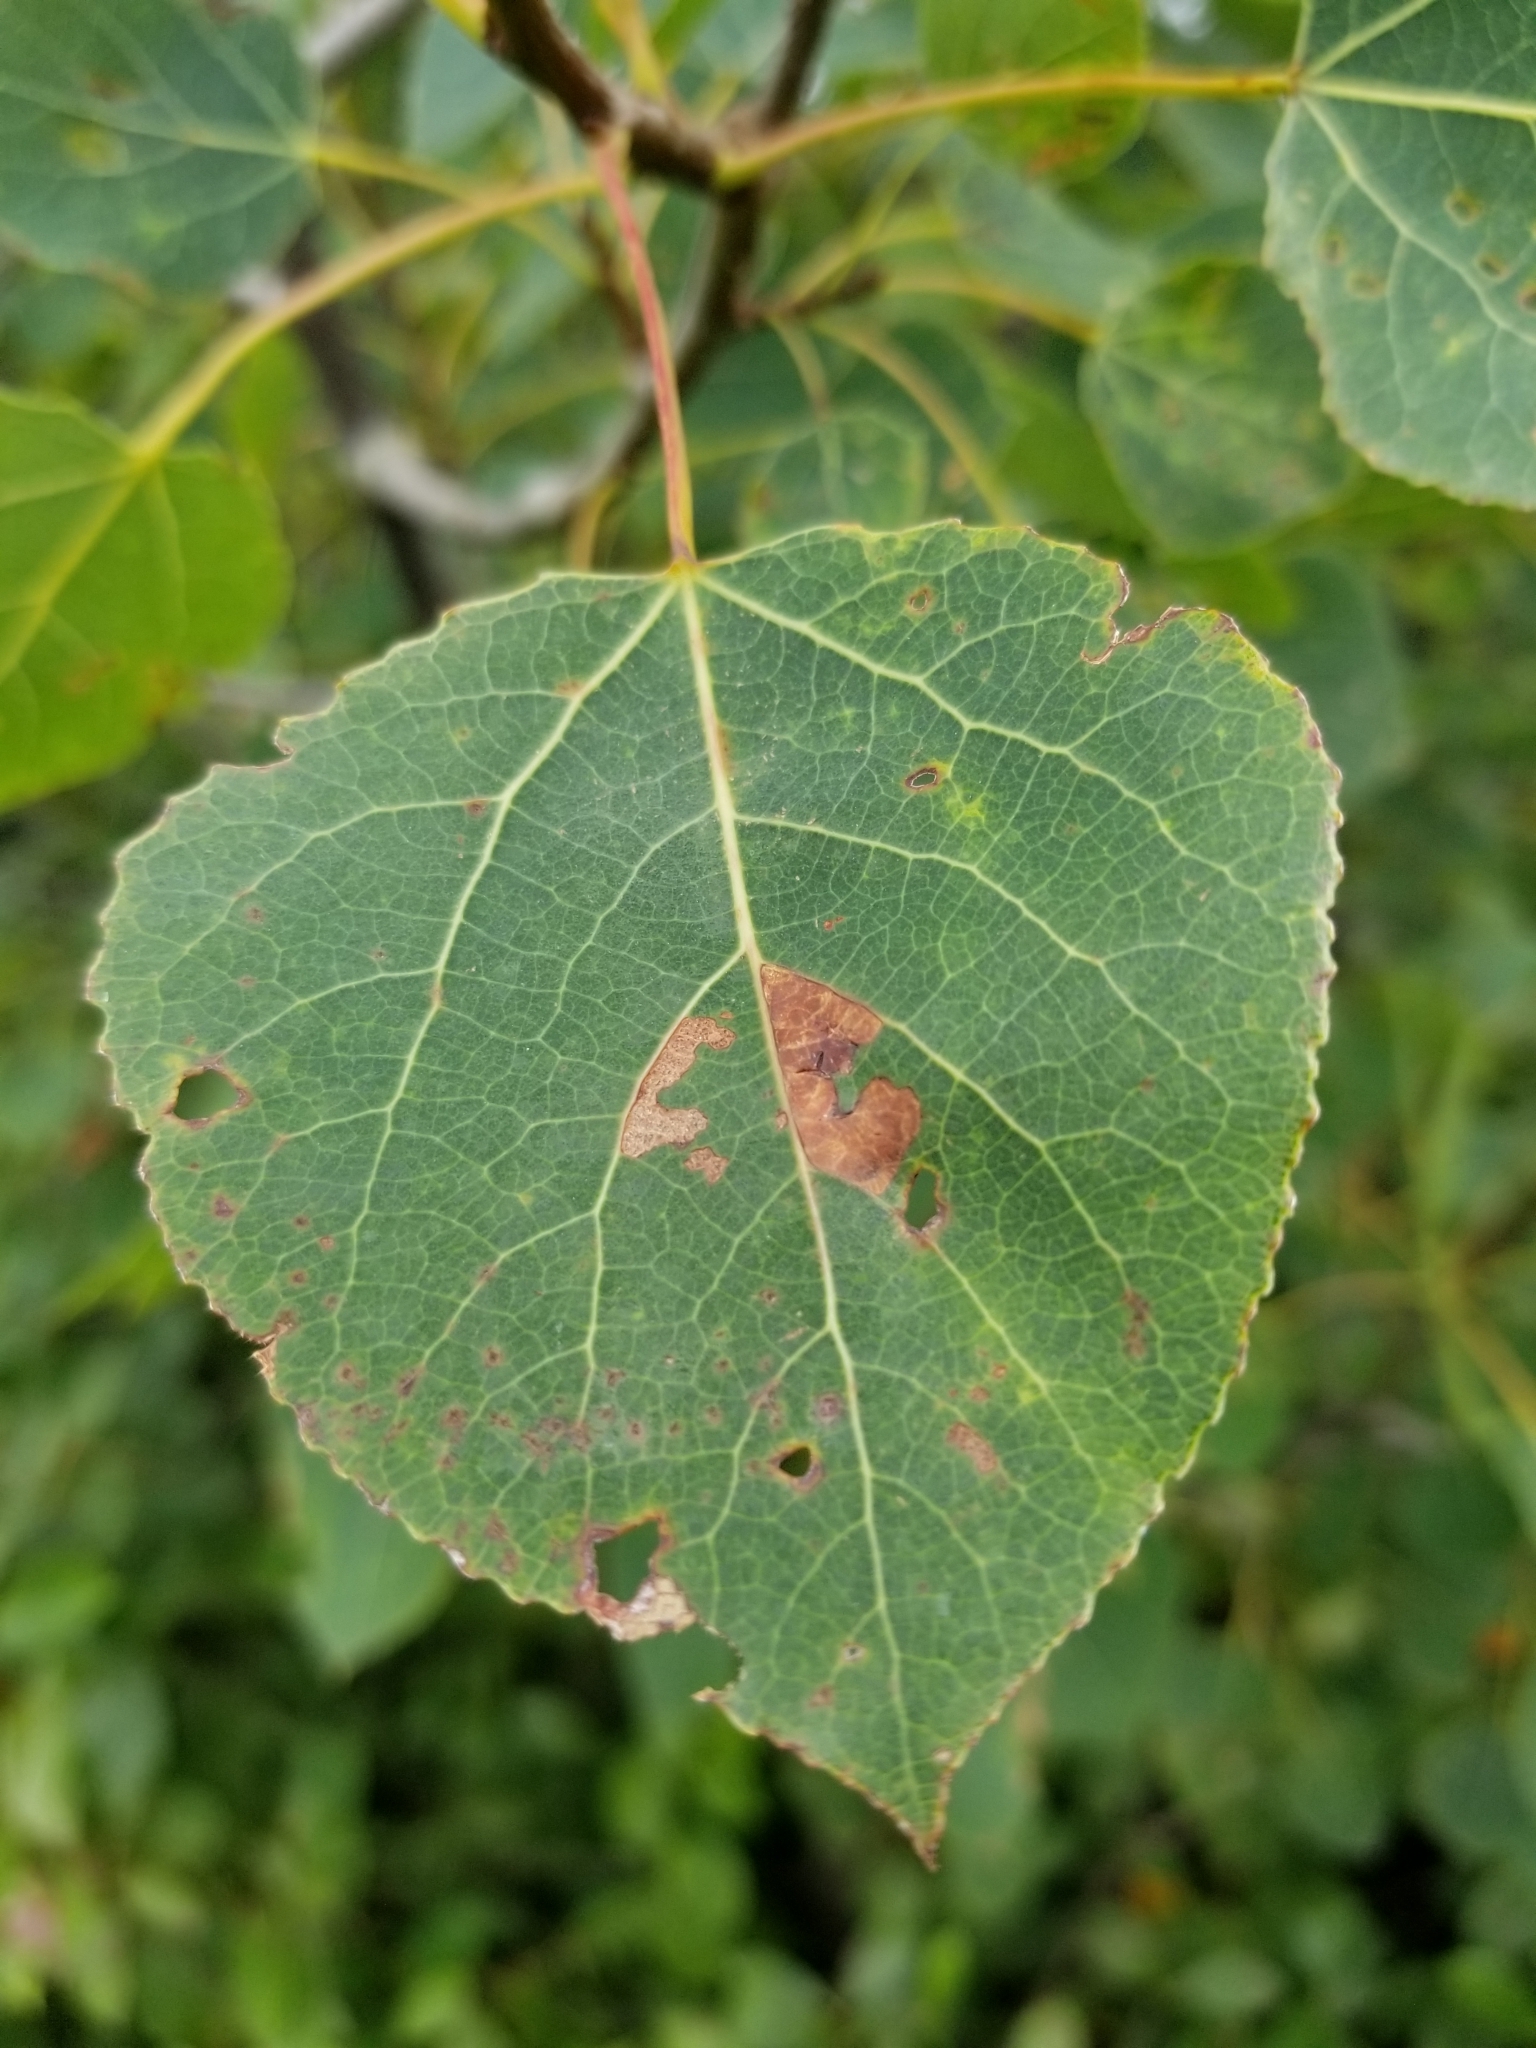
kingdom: Plantae
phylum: Tracheophyta
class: Magnoliopsida
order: Malpighiales
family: Salicaceae
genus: Populus
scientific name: Populus tremuloides
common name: Quaking aspen
